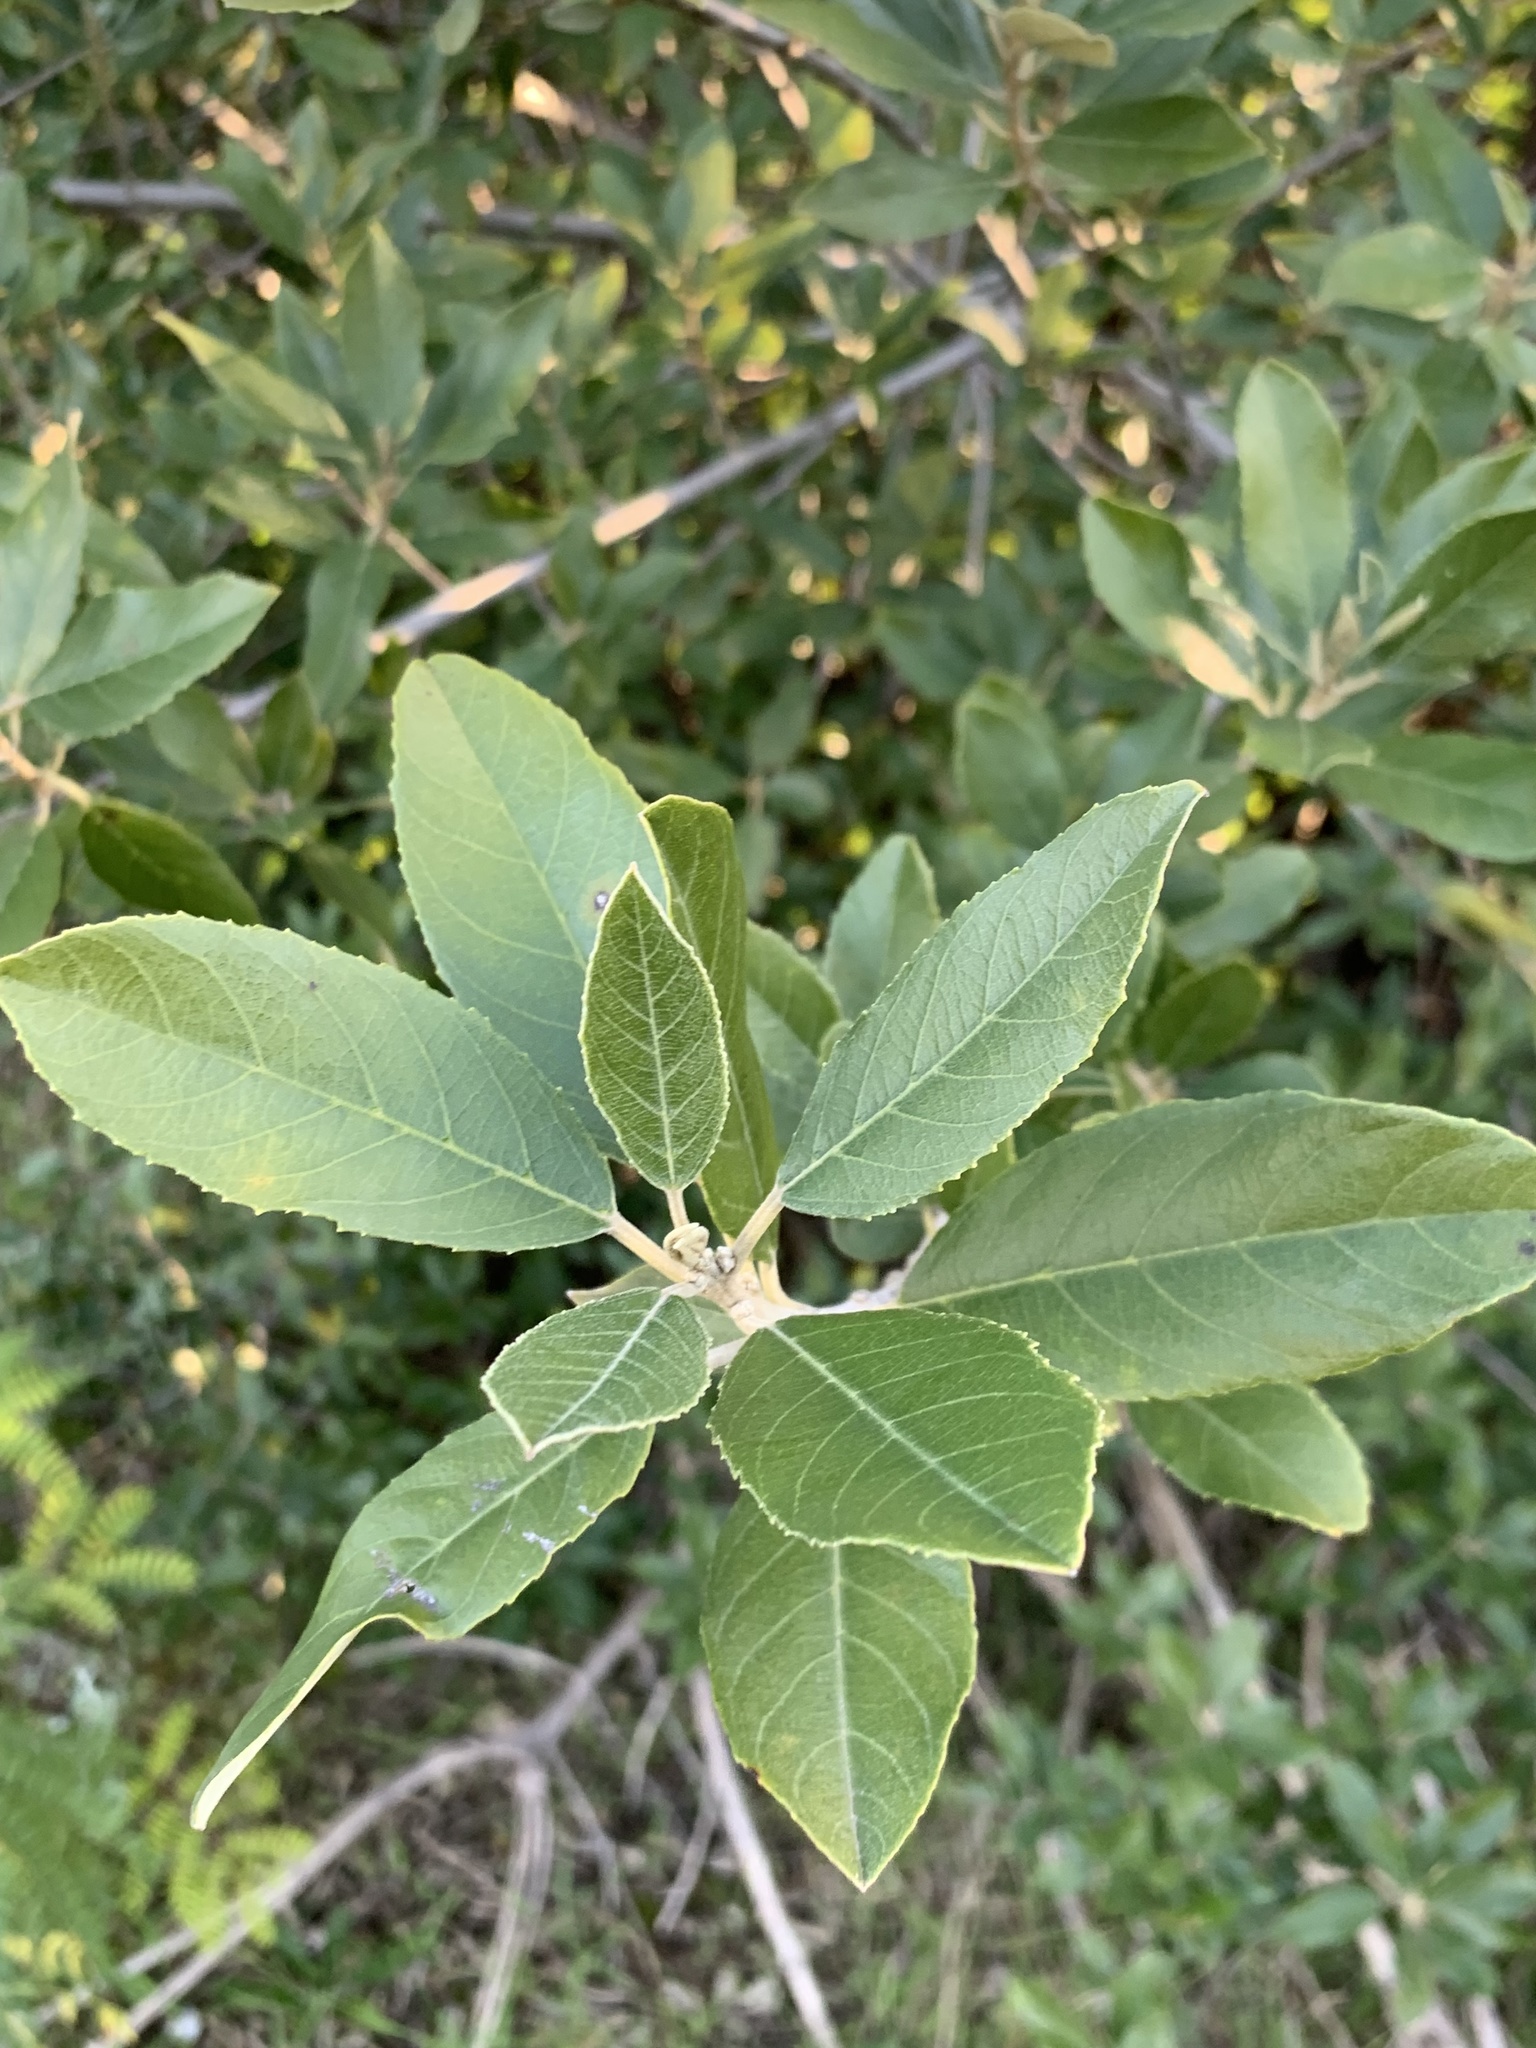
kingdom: Plantae
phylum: Tracheophyta
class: Magnoliopsida
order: Malpighiales
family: Achariaceae
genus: Kiggelaria
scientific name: Kiggelaria africana
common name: Wild peach
